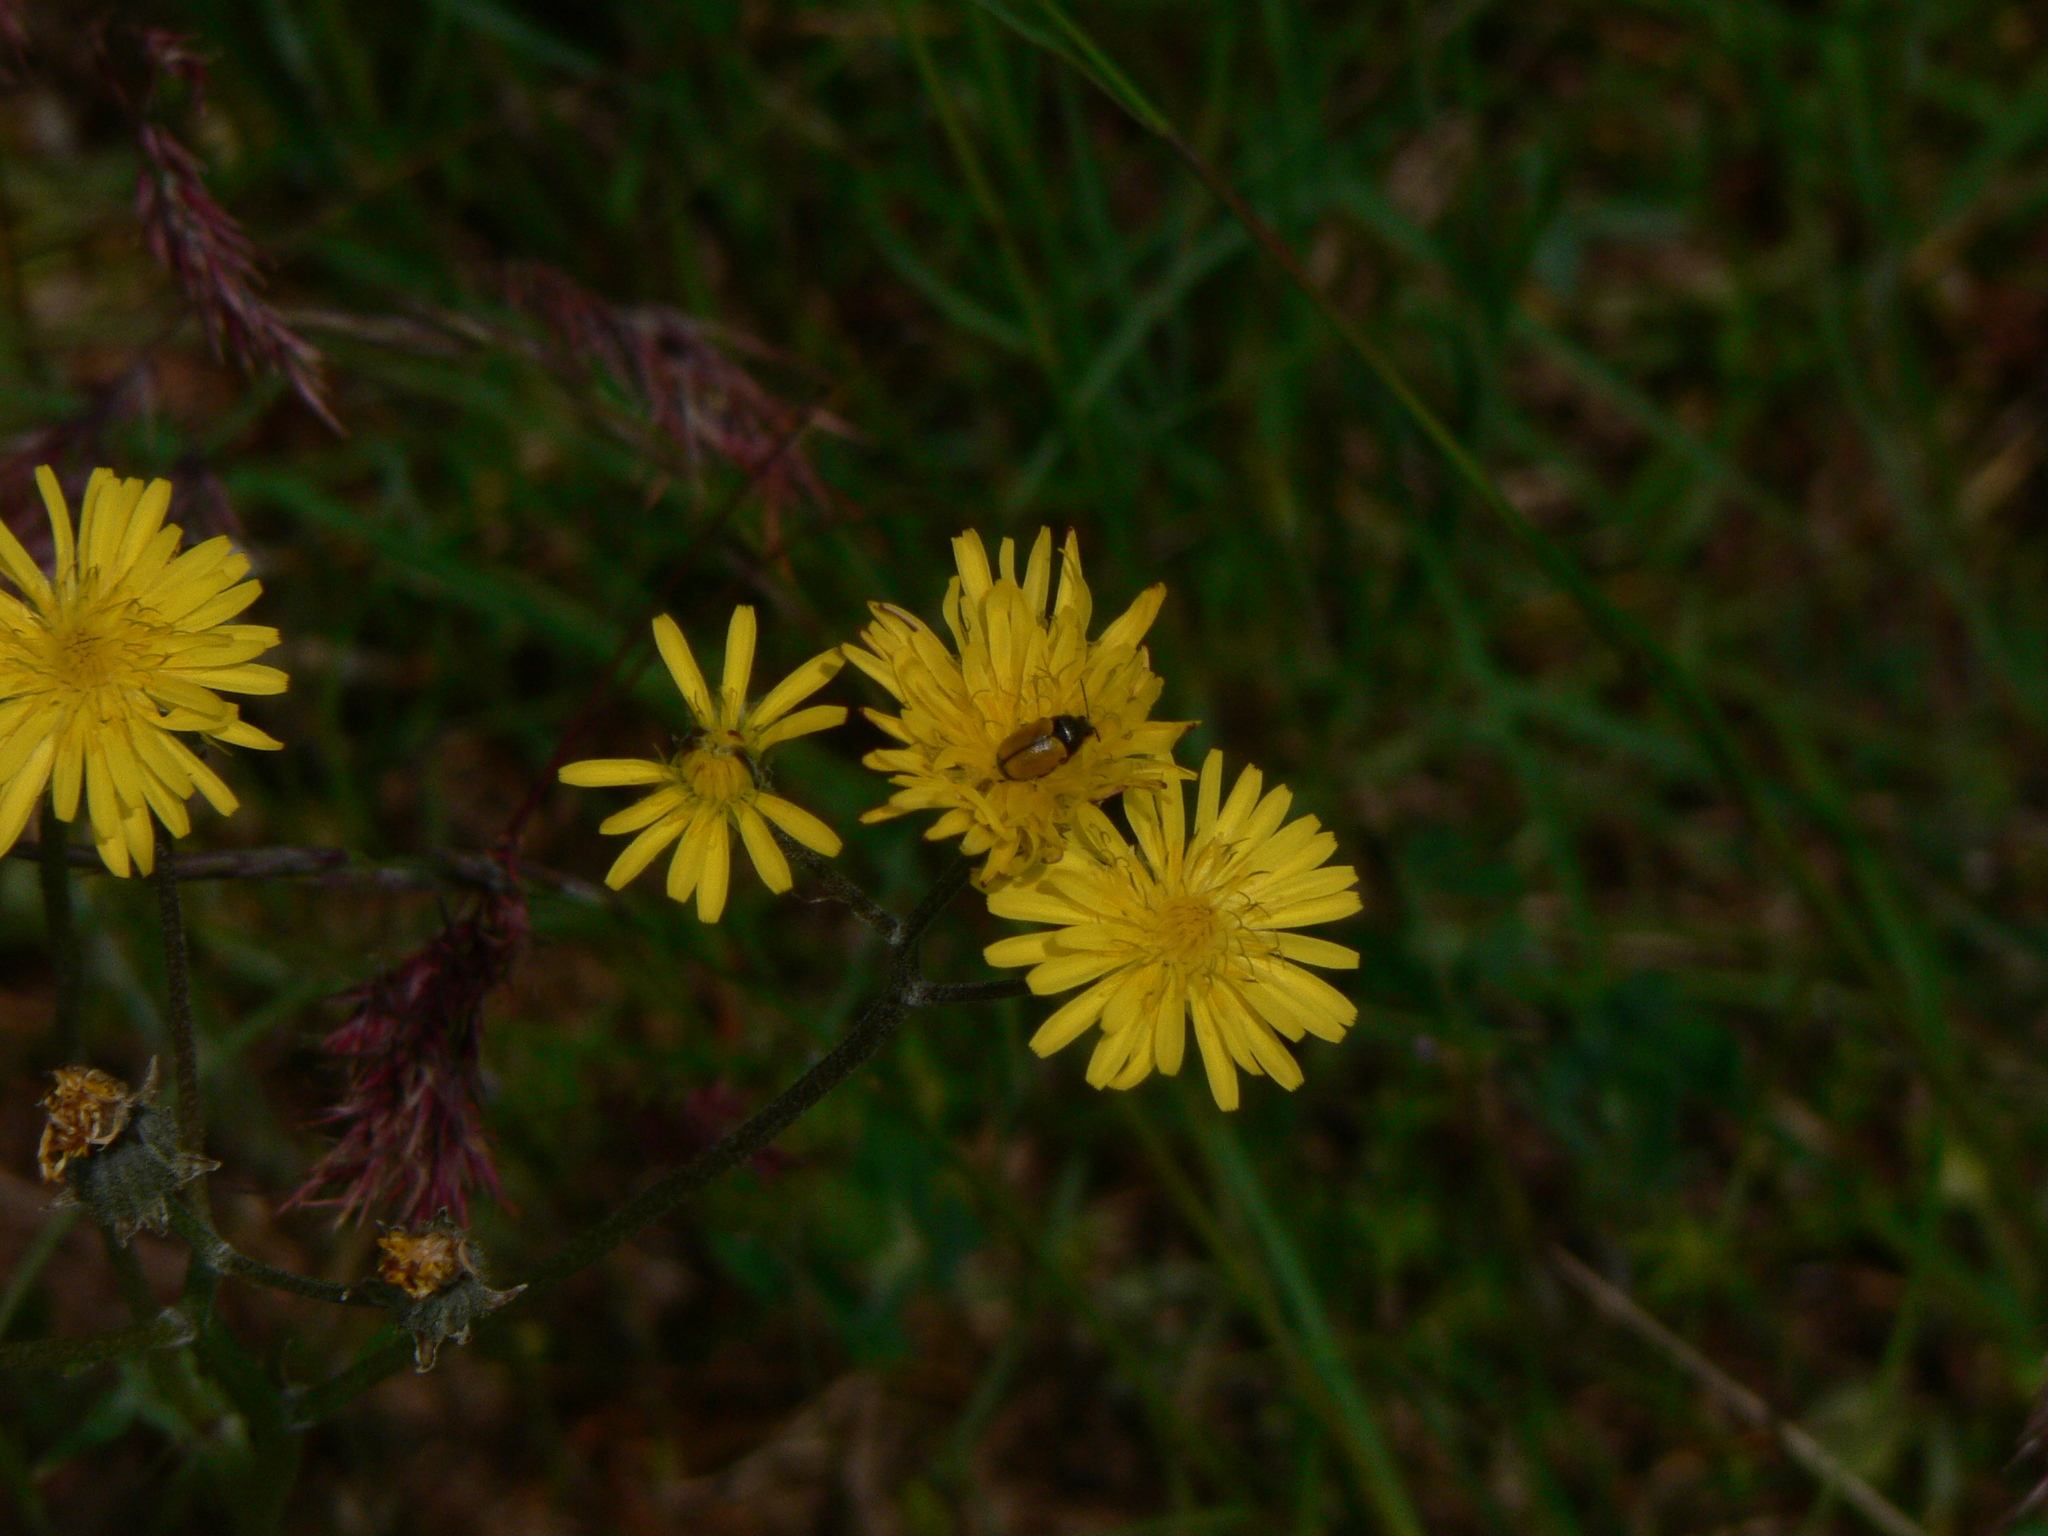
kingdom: Animalia
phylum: Arthropoda
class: Insecta
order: Coleoptera
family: Chrysomelidae
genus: Cryptocephalus
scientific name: Cryptocephalus rugicollis
